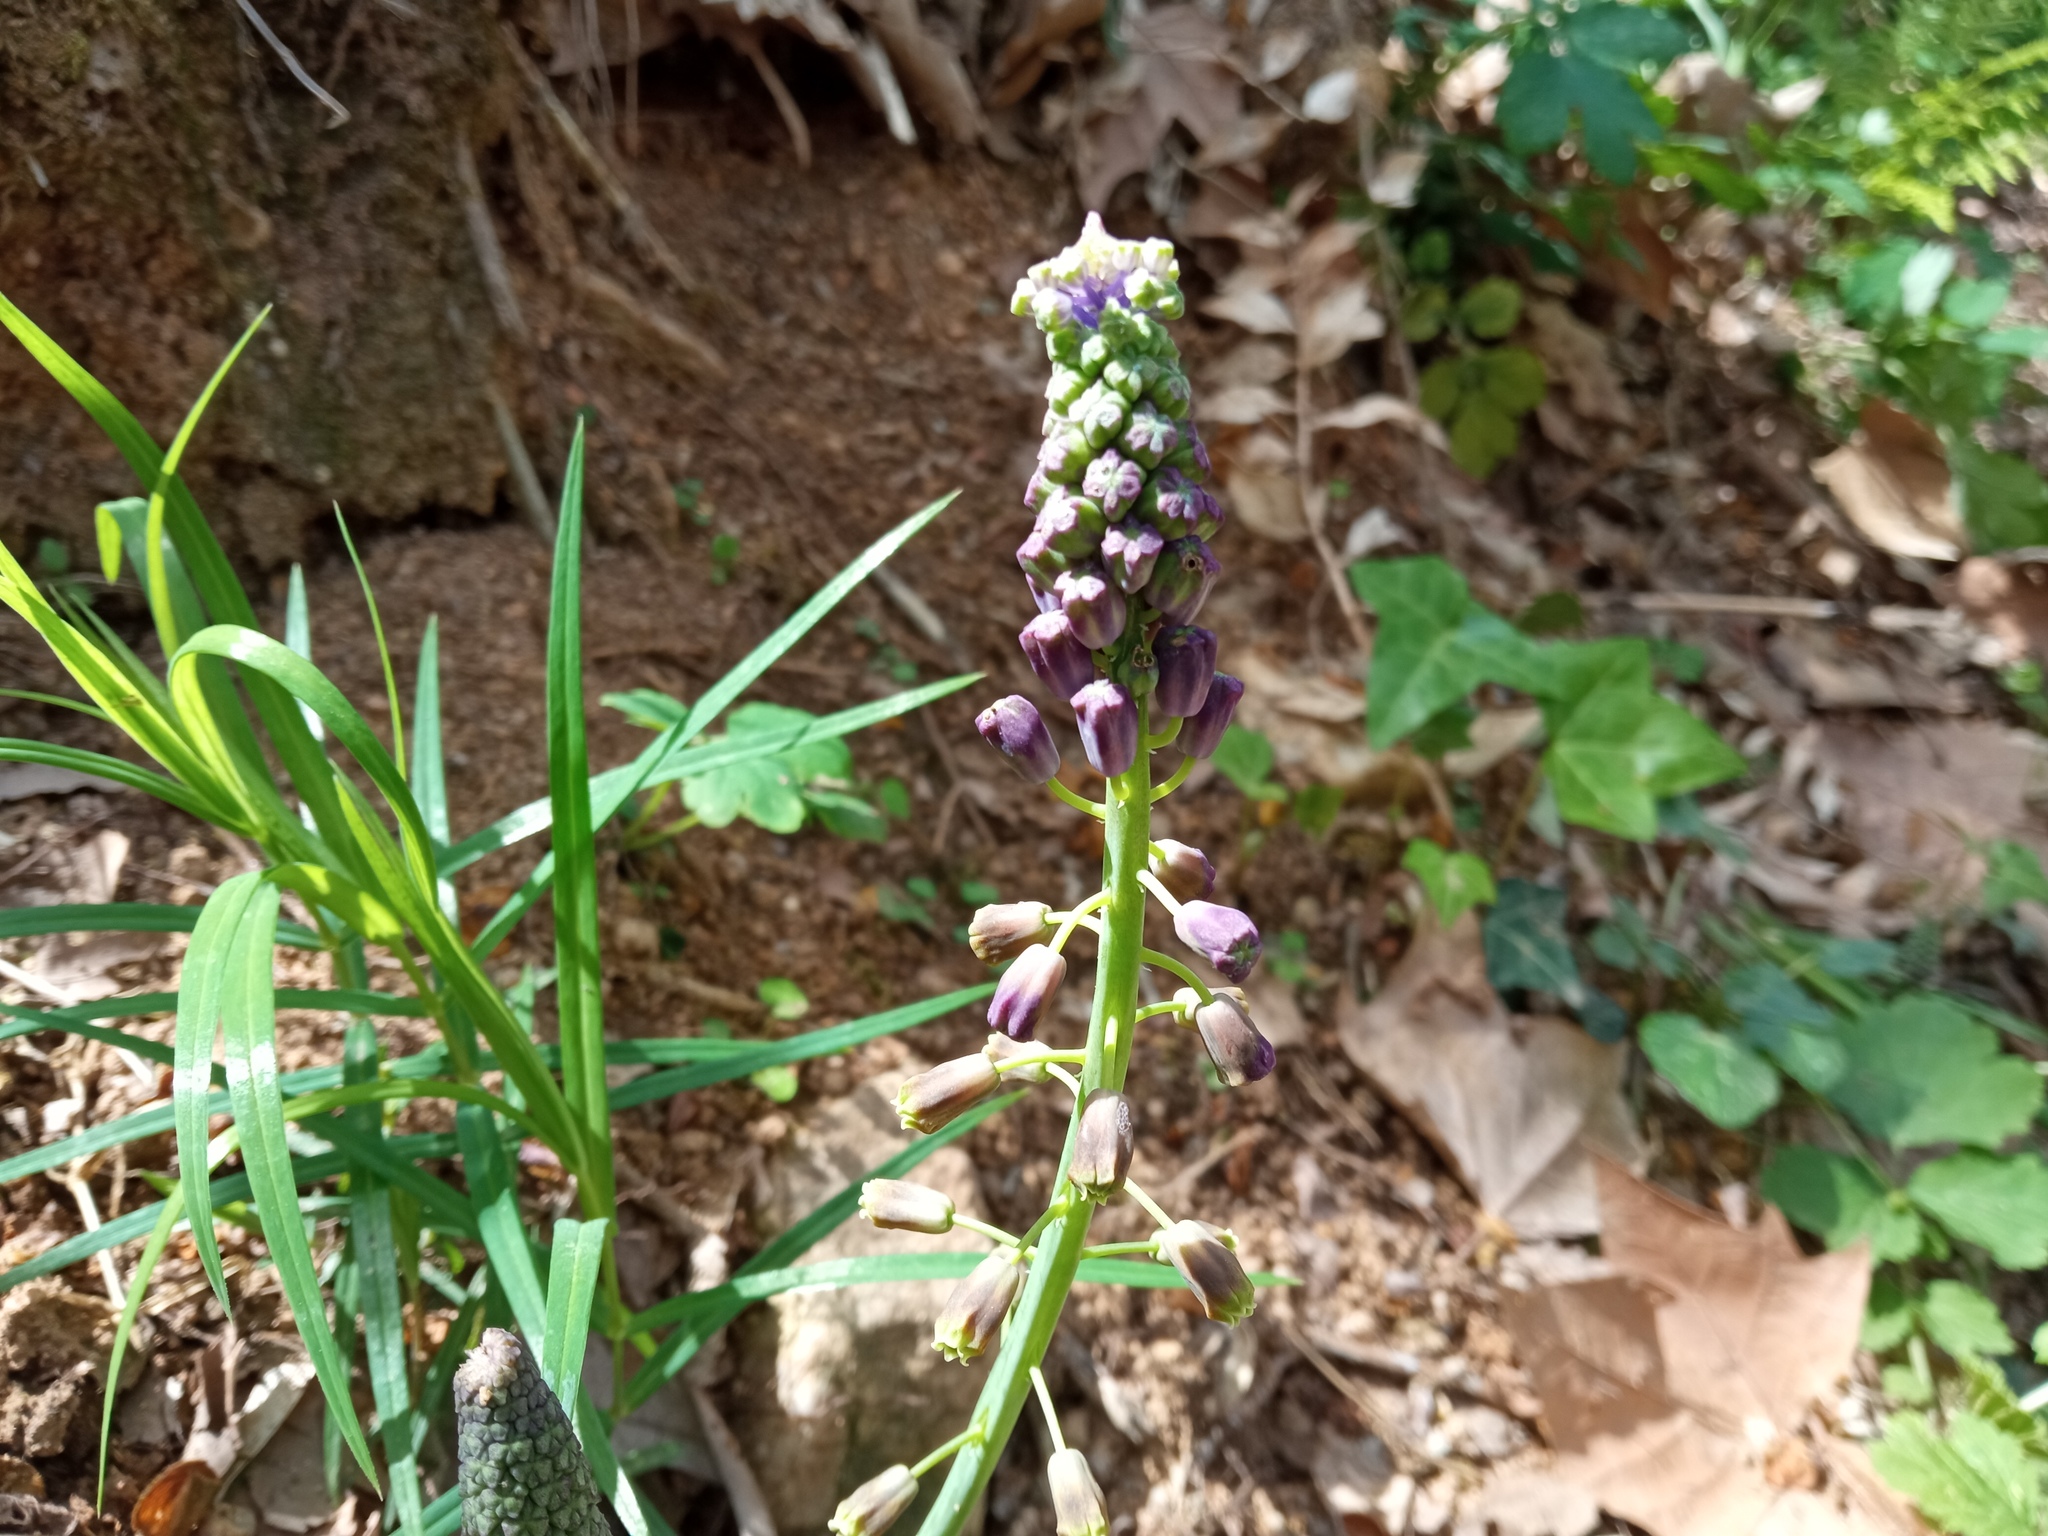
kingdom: Plantae
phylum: Tracheophyta
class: Liliopsida
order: Asparagales
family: Asparagaceae
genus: Muscari
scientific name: Muscari comosum
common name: Tassel hyacinth
